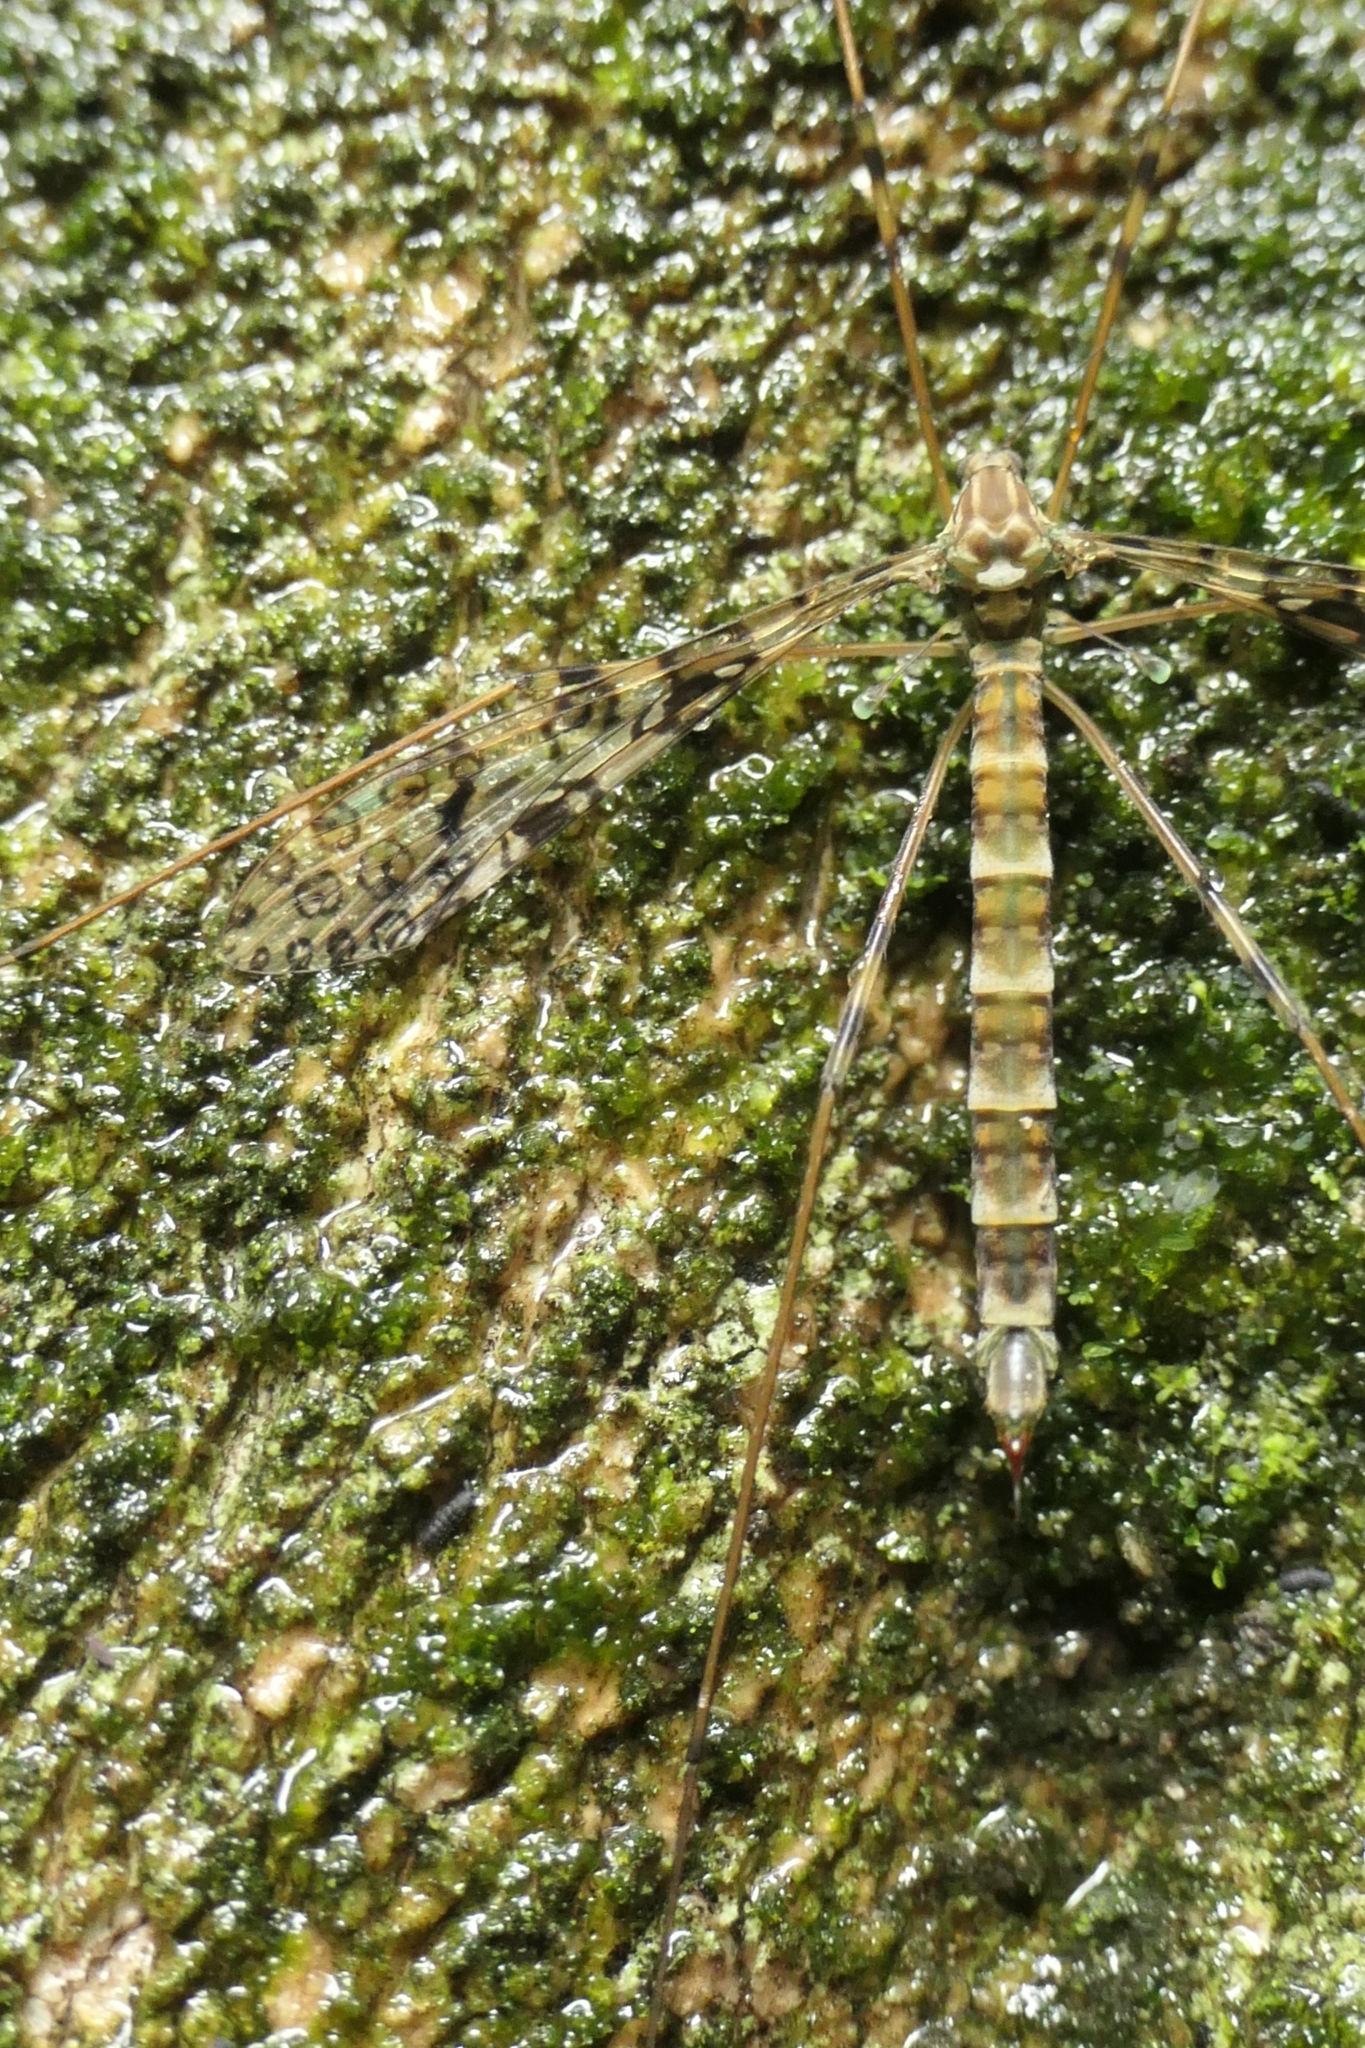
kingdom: Animalia
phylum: Arthropoda
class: Insecta
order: Diptera
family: Limoniidae
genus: Austrolimnophila
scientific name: Austrolimnophila argus
